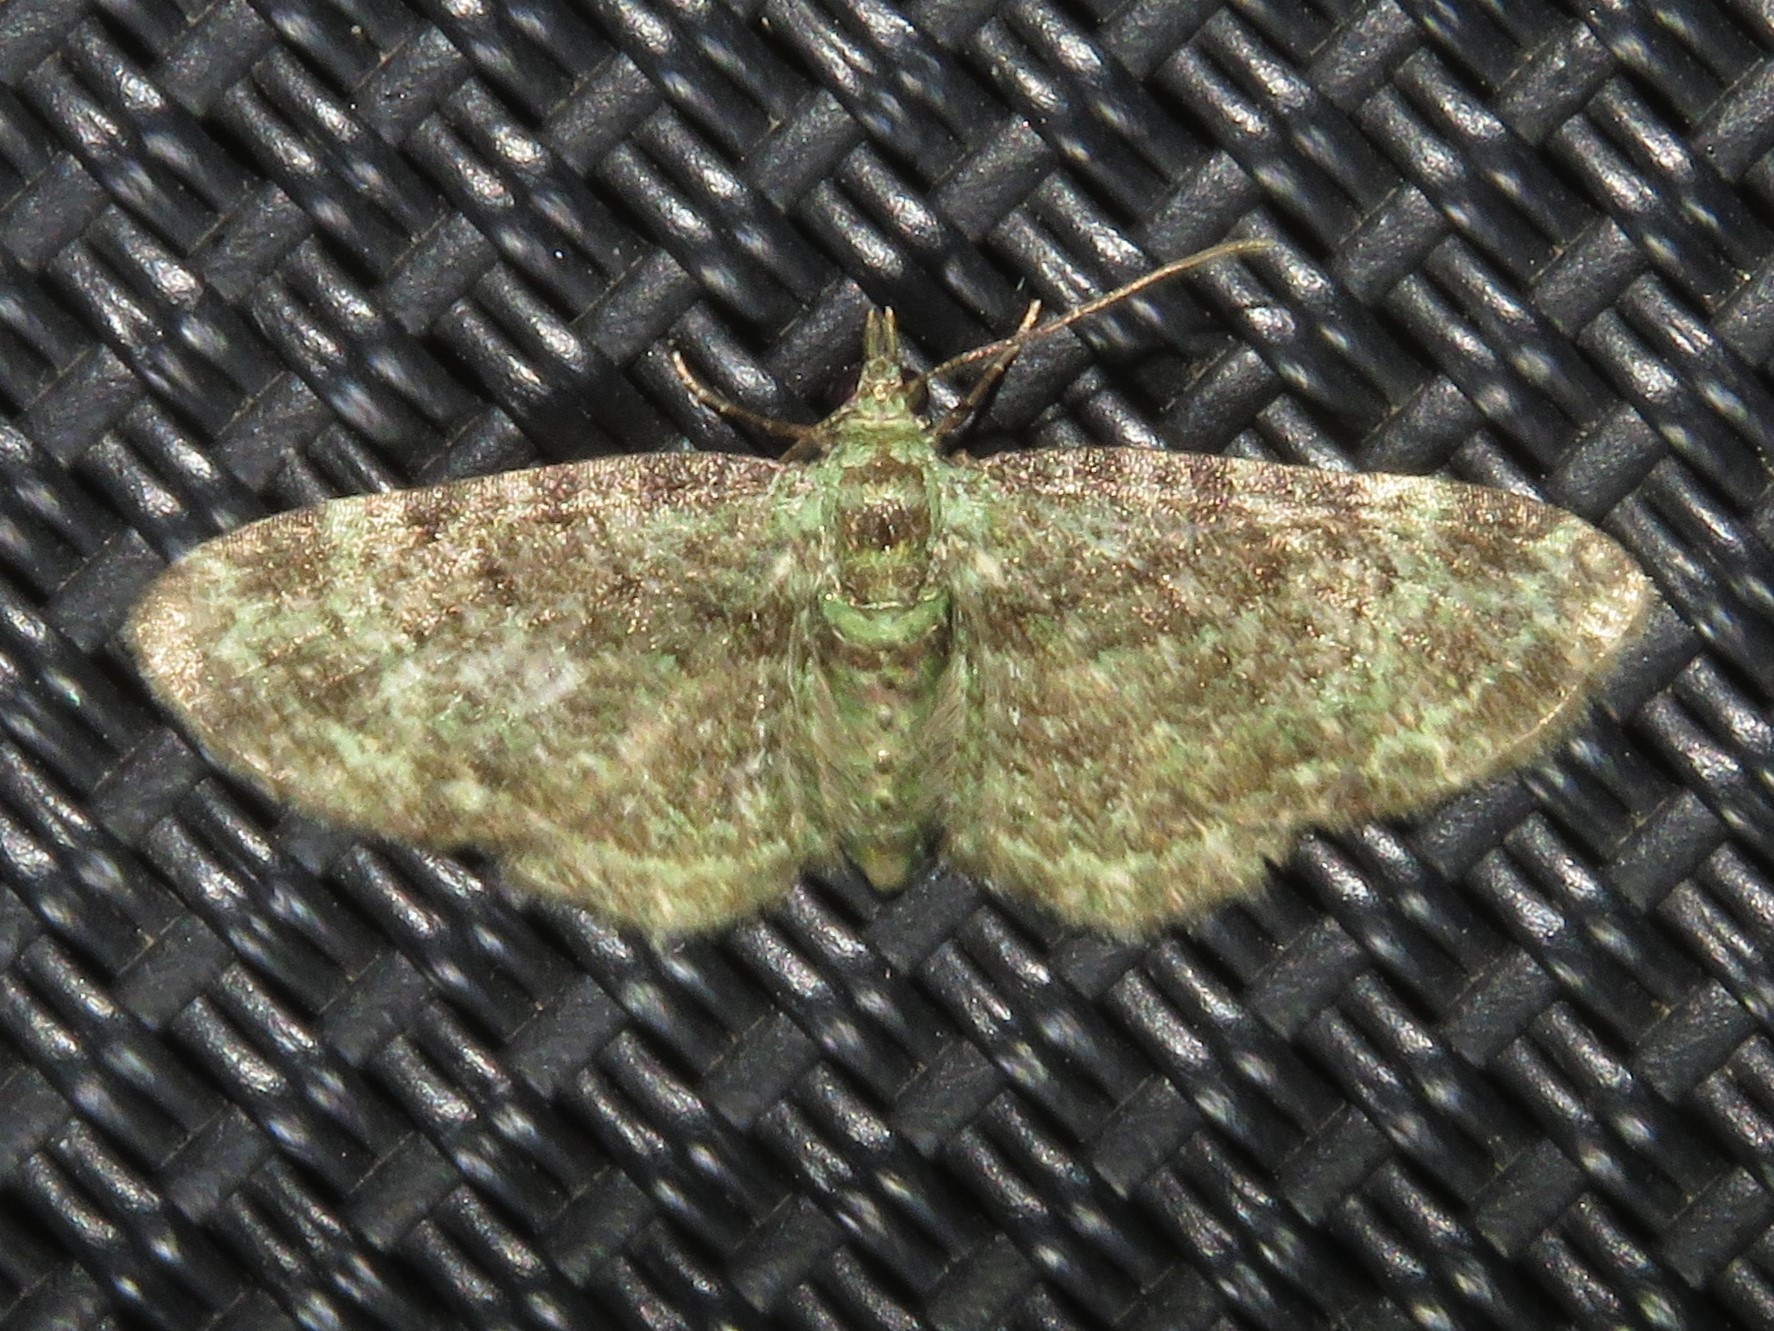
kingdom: Animalia
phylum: Arthropoda
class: Insecta
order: Lepidoptera
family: Geometridae
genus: Pasiphila
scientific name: Pasiphila rectangulata
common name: Green pug
